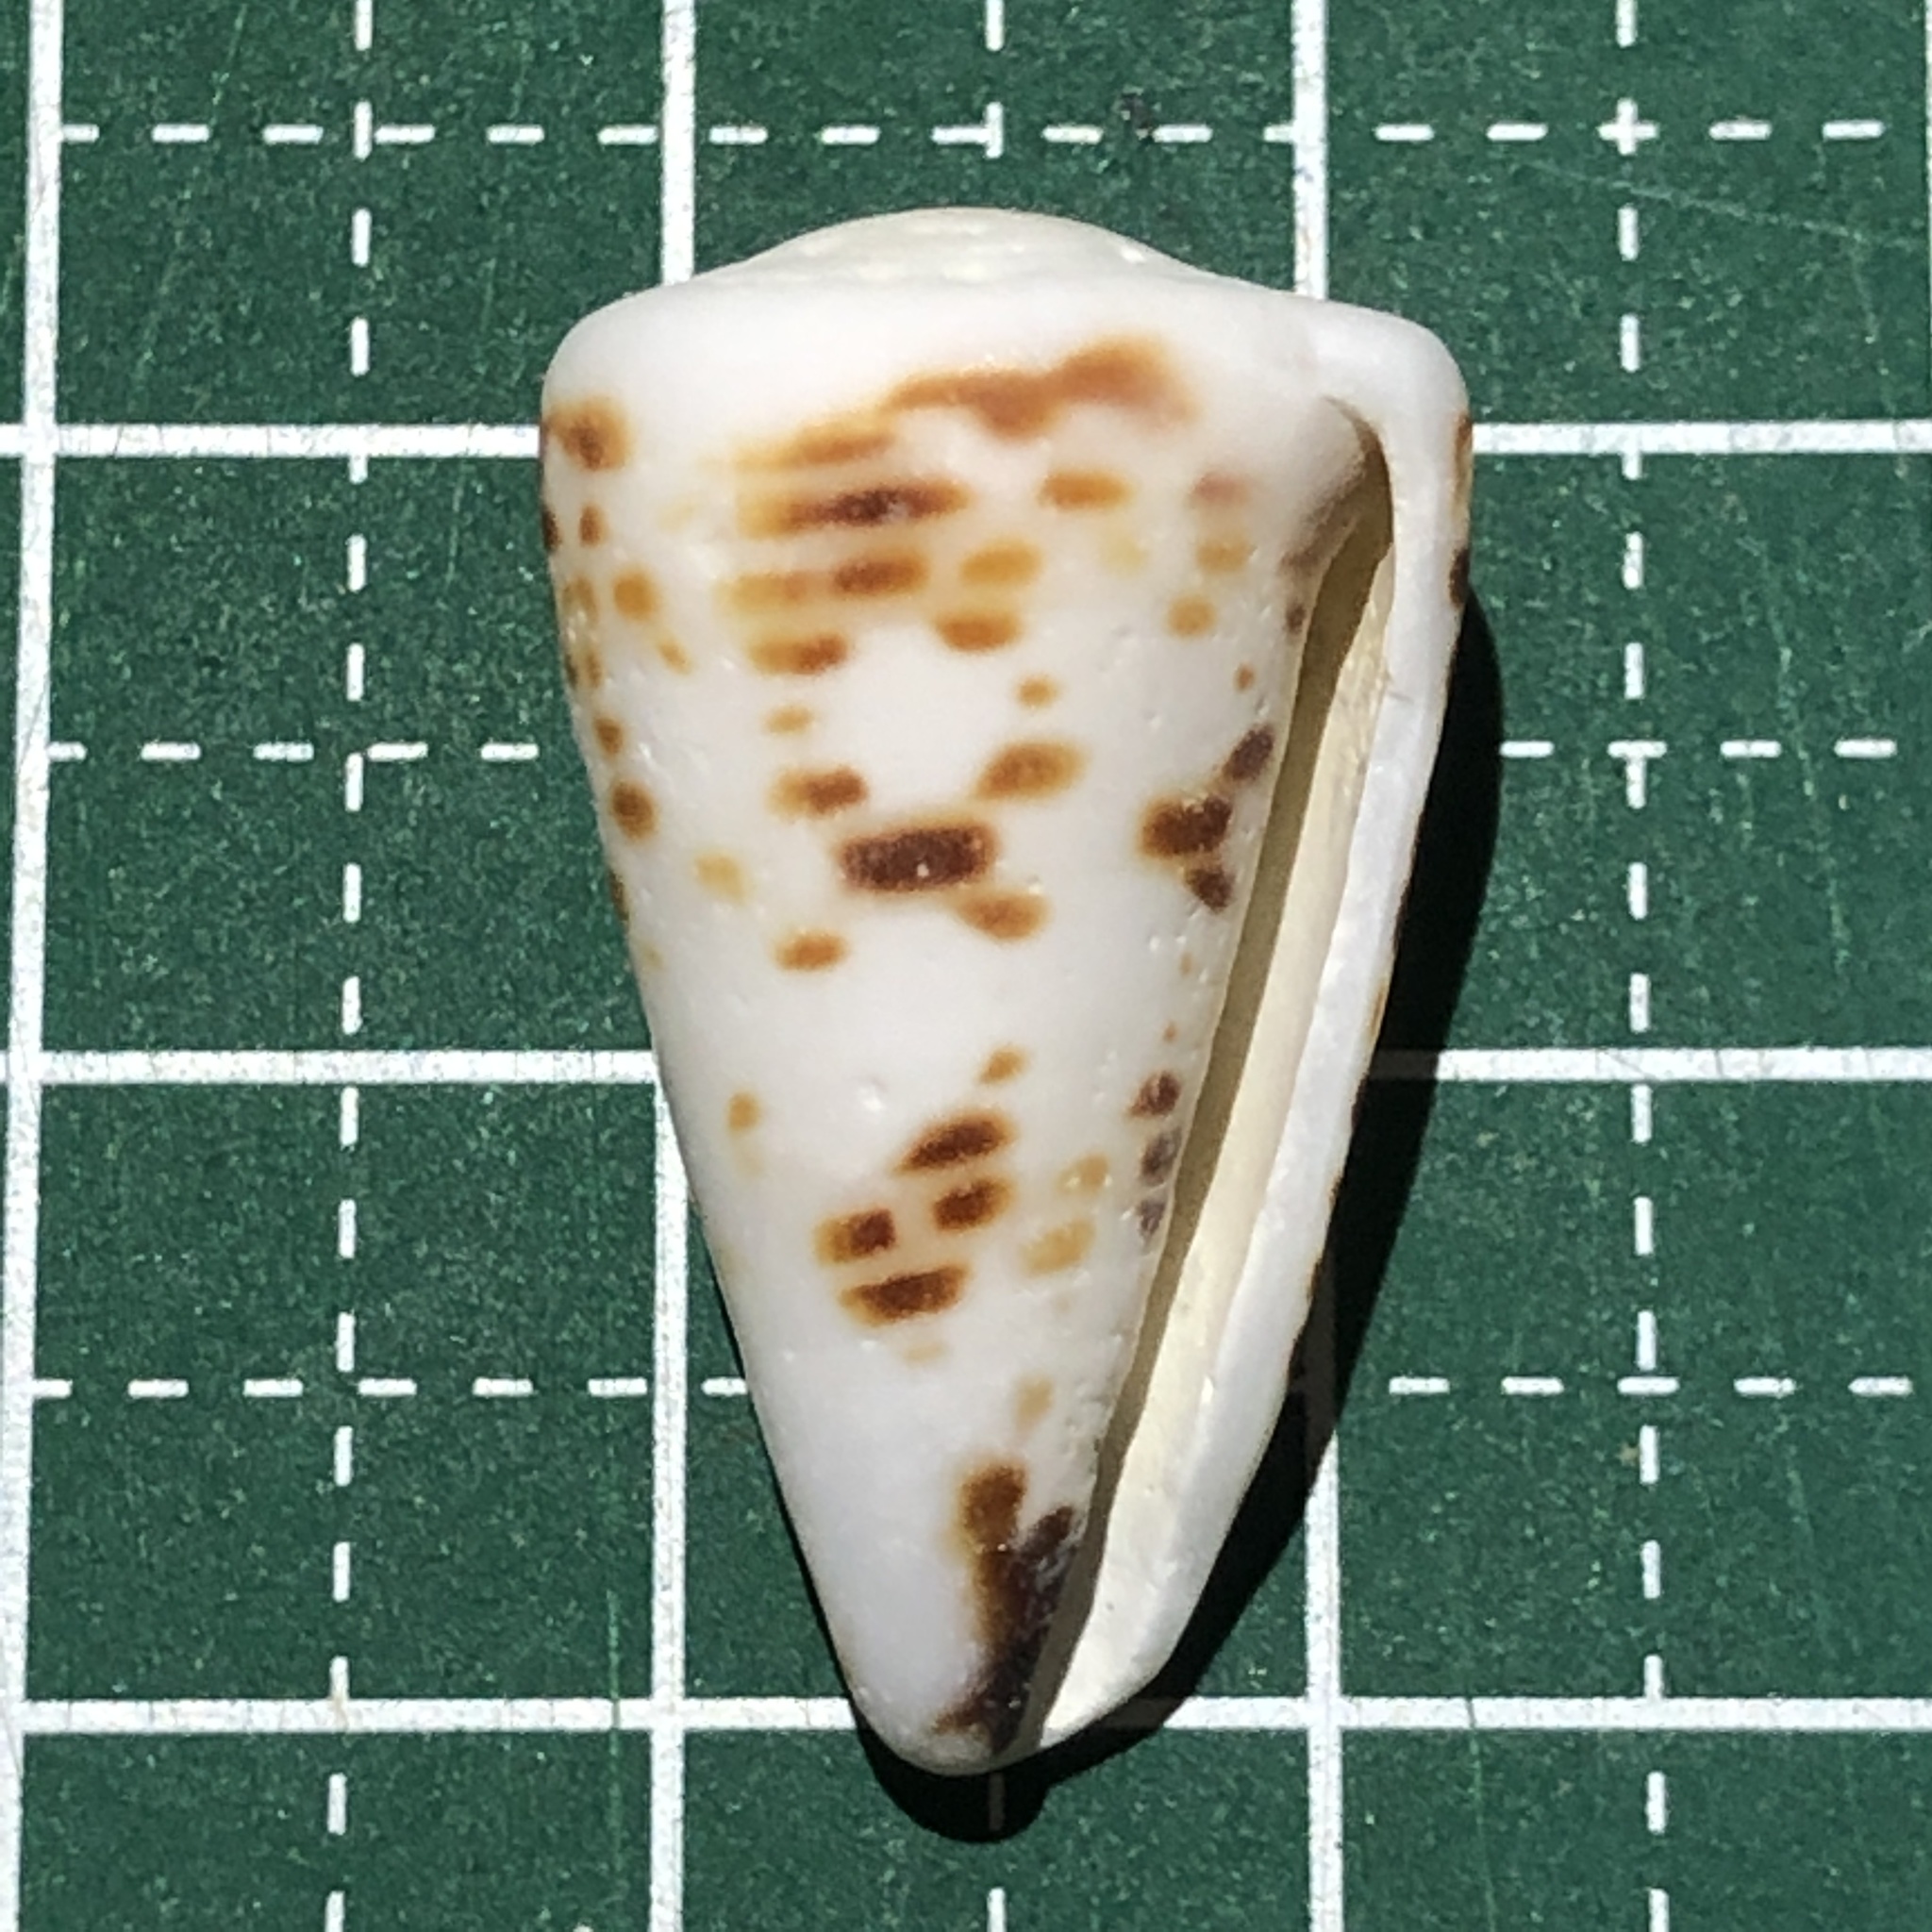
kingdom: Animalia
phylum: Mollusca
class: Gastropoda
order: Neogastropoda
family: Conidae
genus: Conus
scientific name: Conus litteratus
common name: Lettered cone
